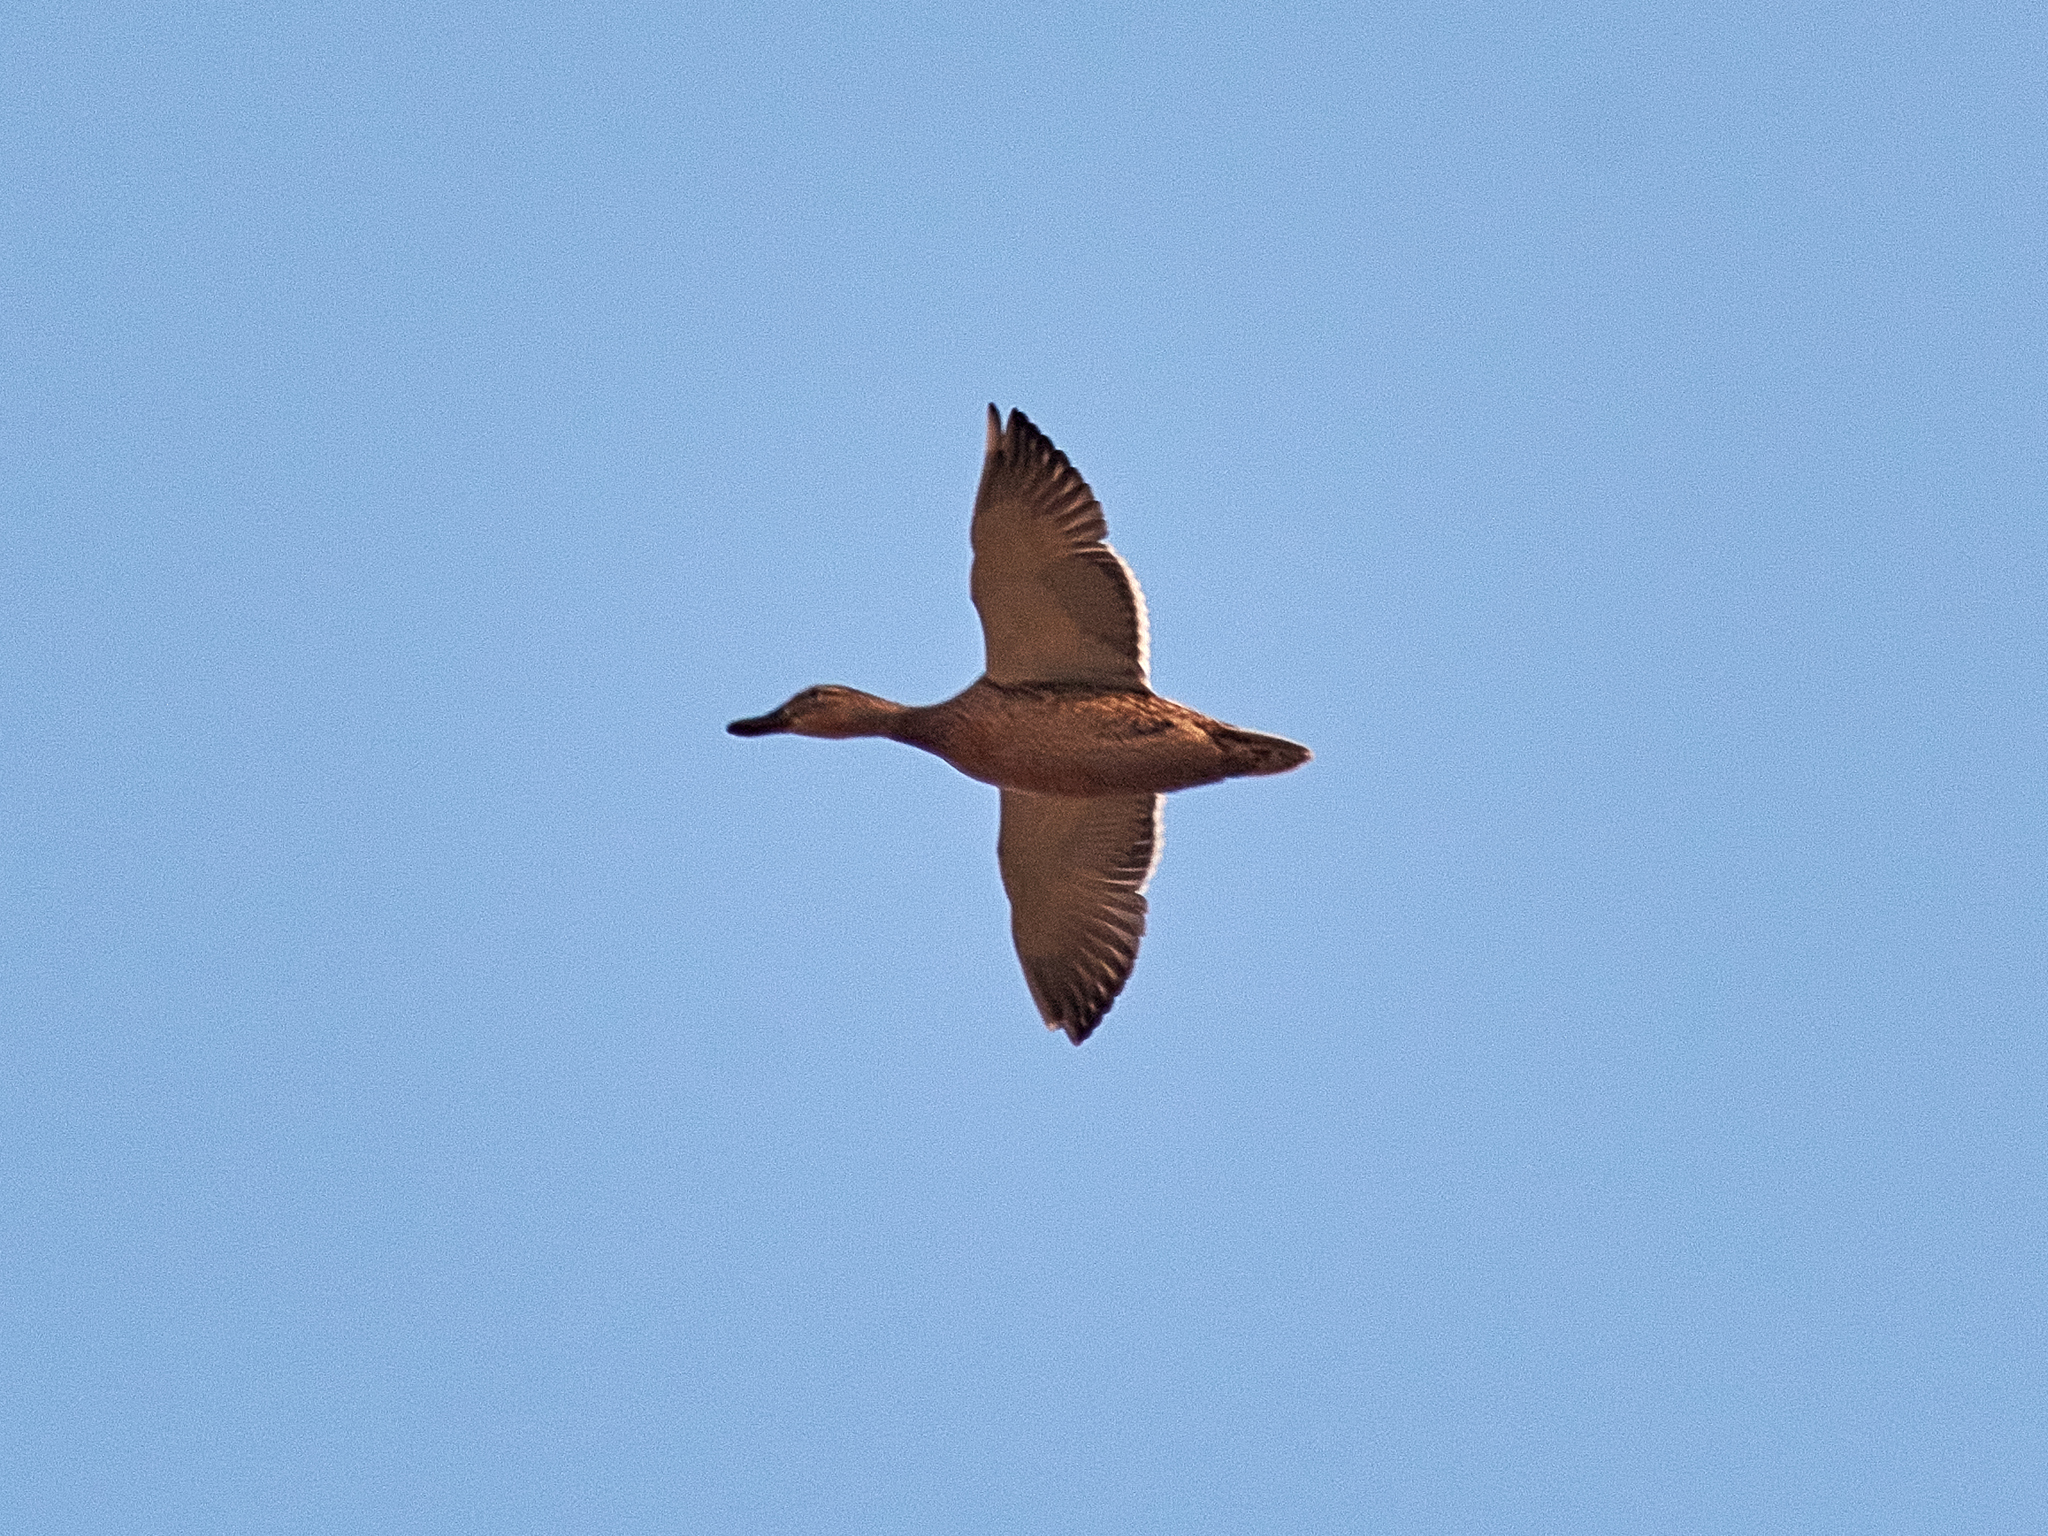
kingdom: Animalia
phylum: Chordata
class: Aves
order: Anseriformes
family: Anatidae
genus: Anas
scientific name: Anas platyrhynchos
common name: Mallard
